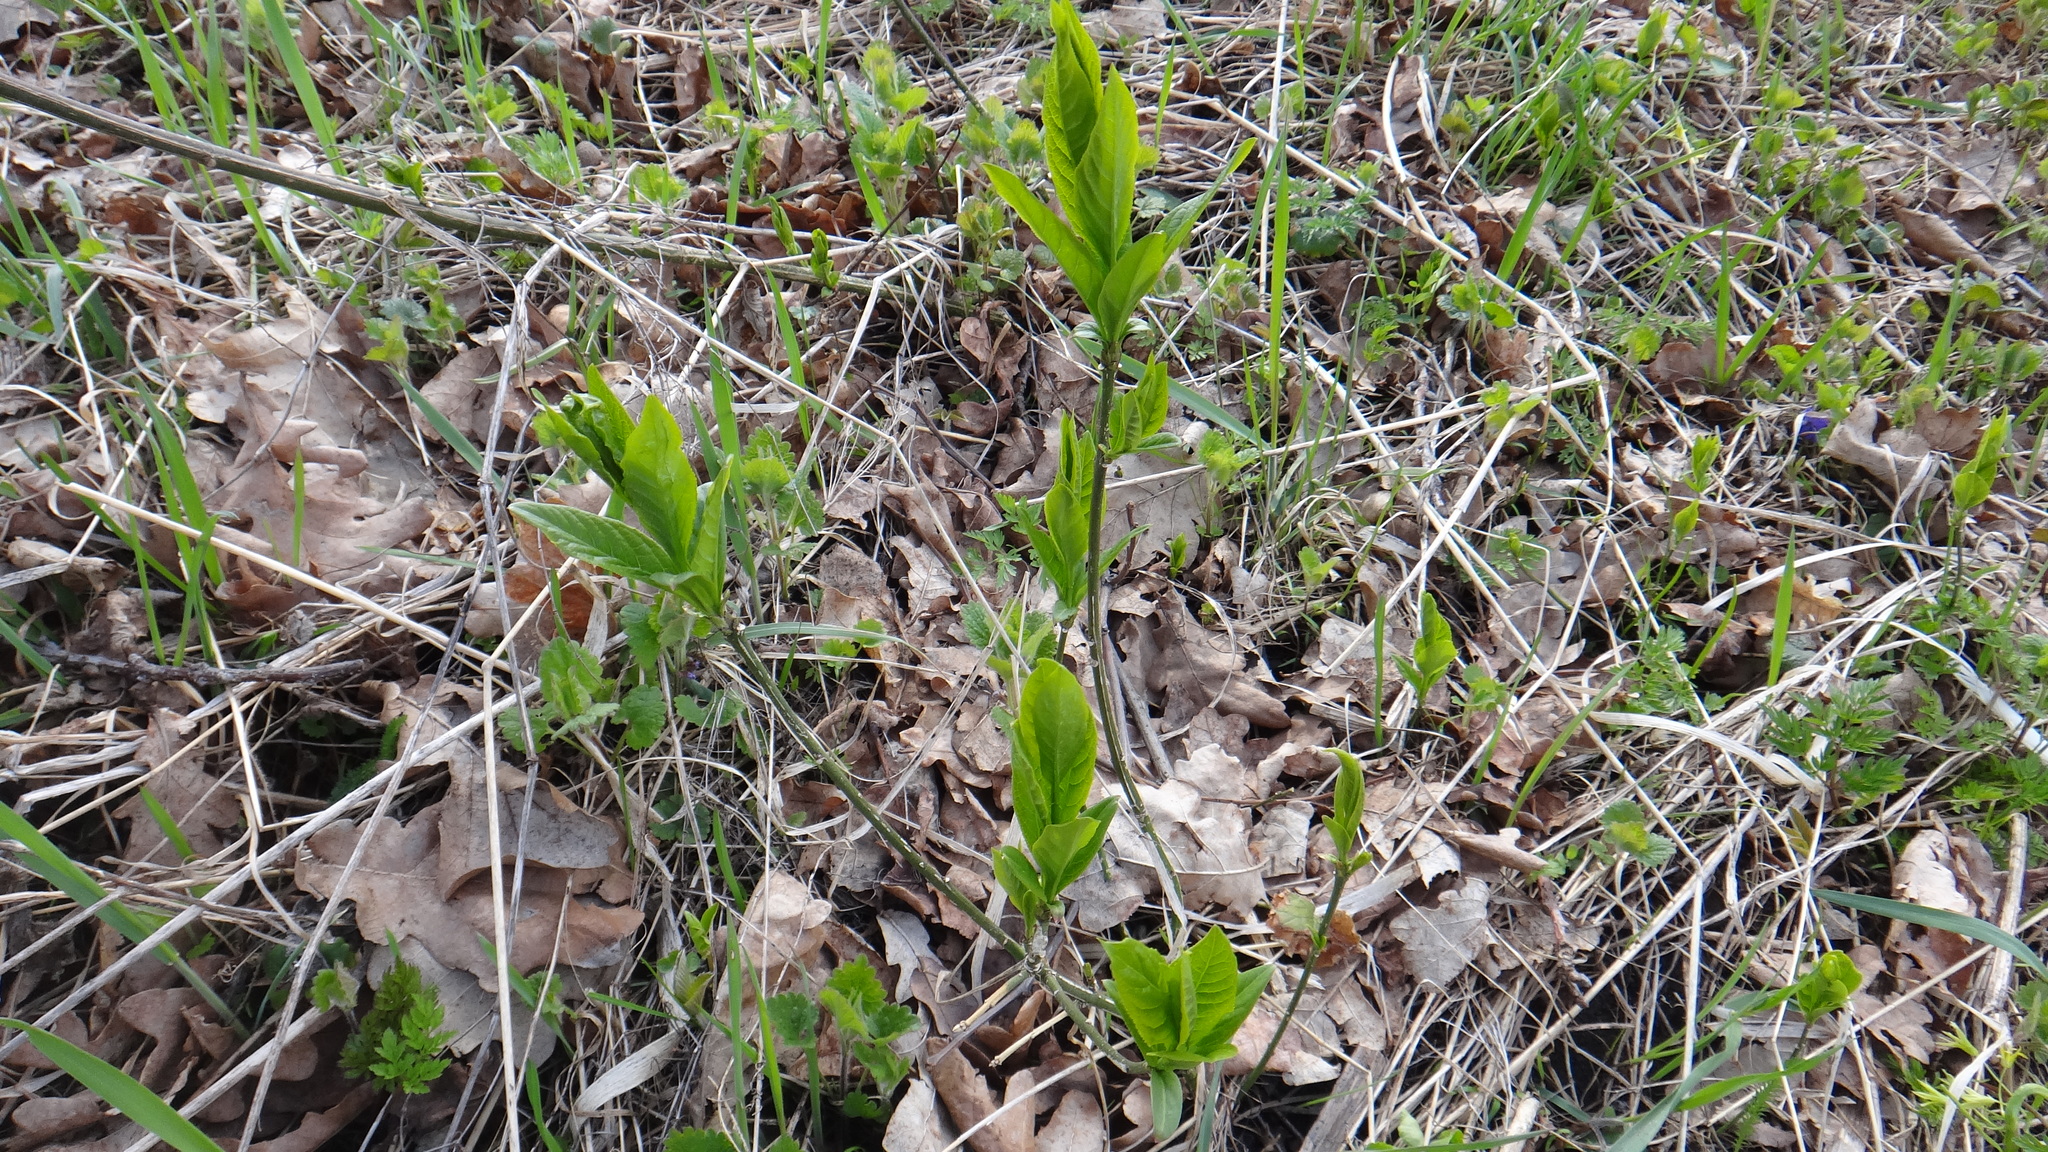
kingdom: Plantae
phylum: Tracheophyta
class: Magnoliopsida
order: Celastrales
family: Celastraceae
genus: Euonymus
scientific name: Euonymus europaeus
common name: Spindle
